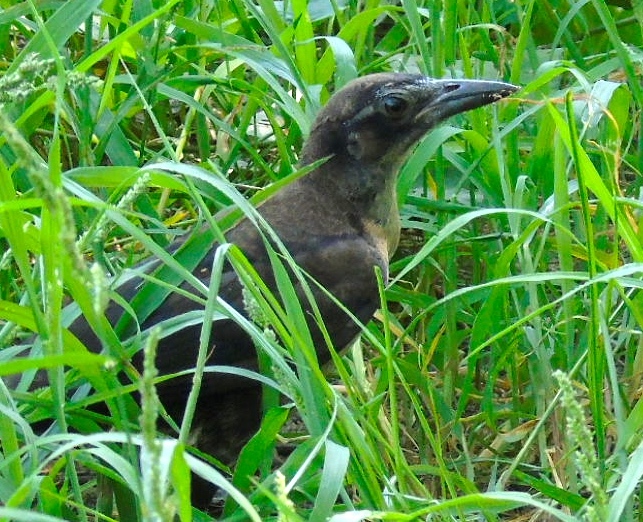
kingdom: Animalia
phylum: Chordata
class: Aves
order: Passeriformes
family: Icteridae
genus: Quiscalus
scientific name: Quiscalus mexicanus
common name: Great-tailed grackle
